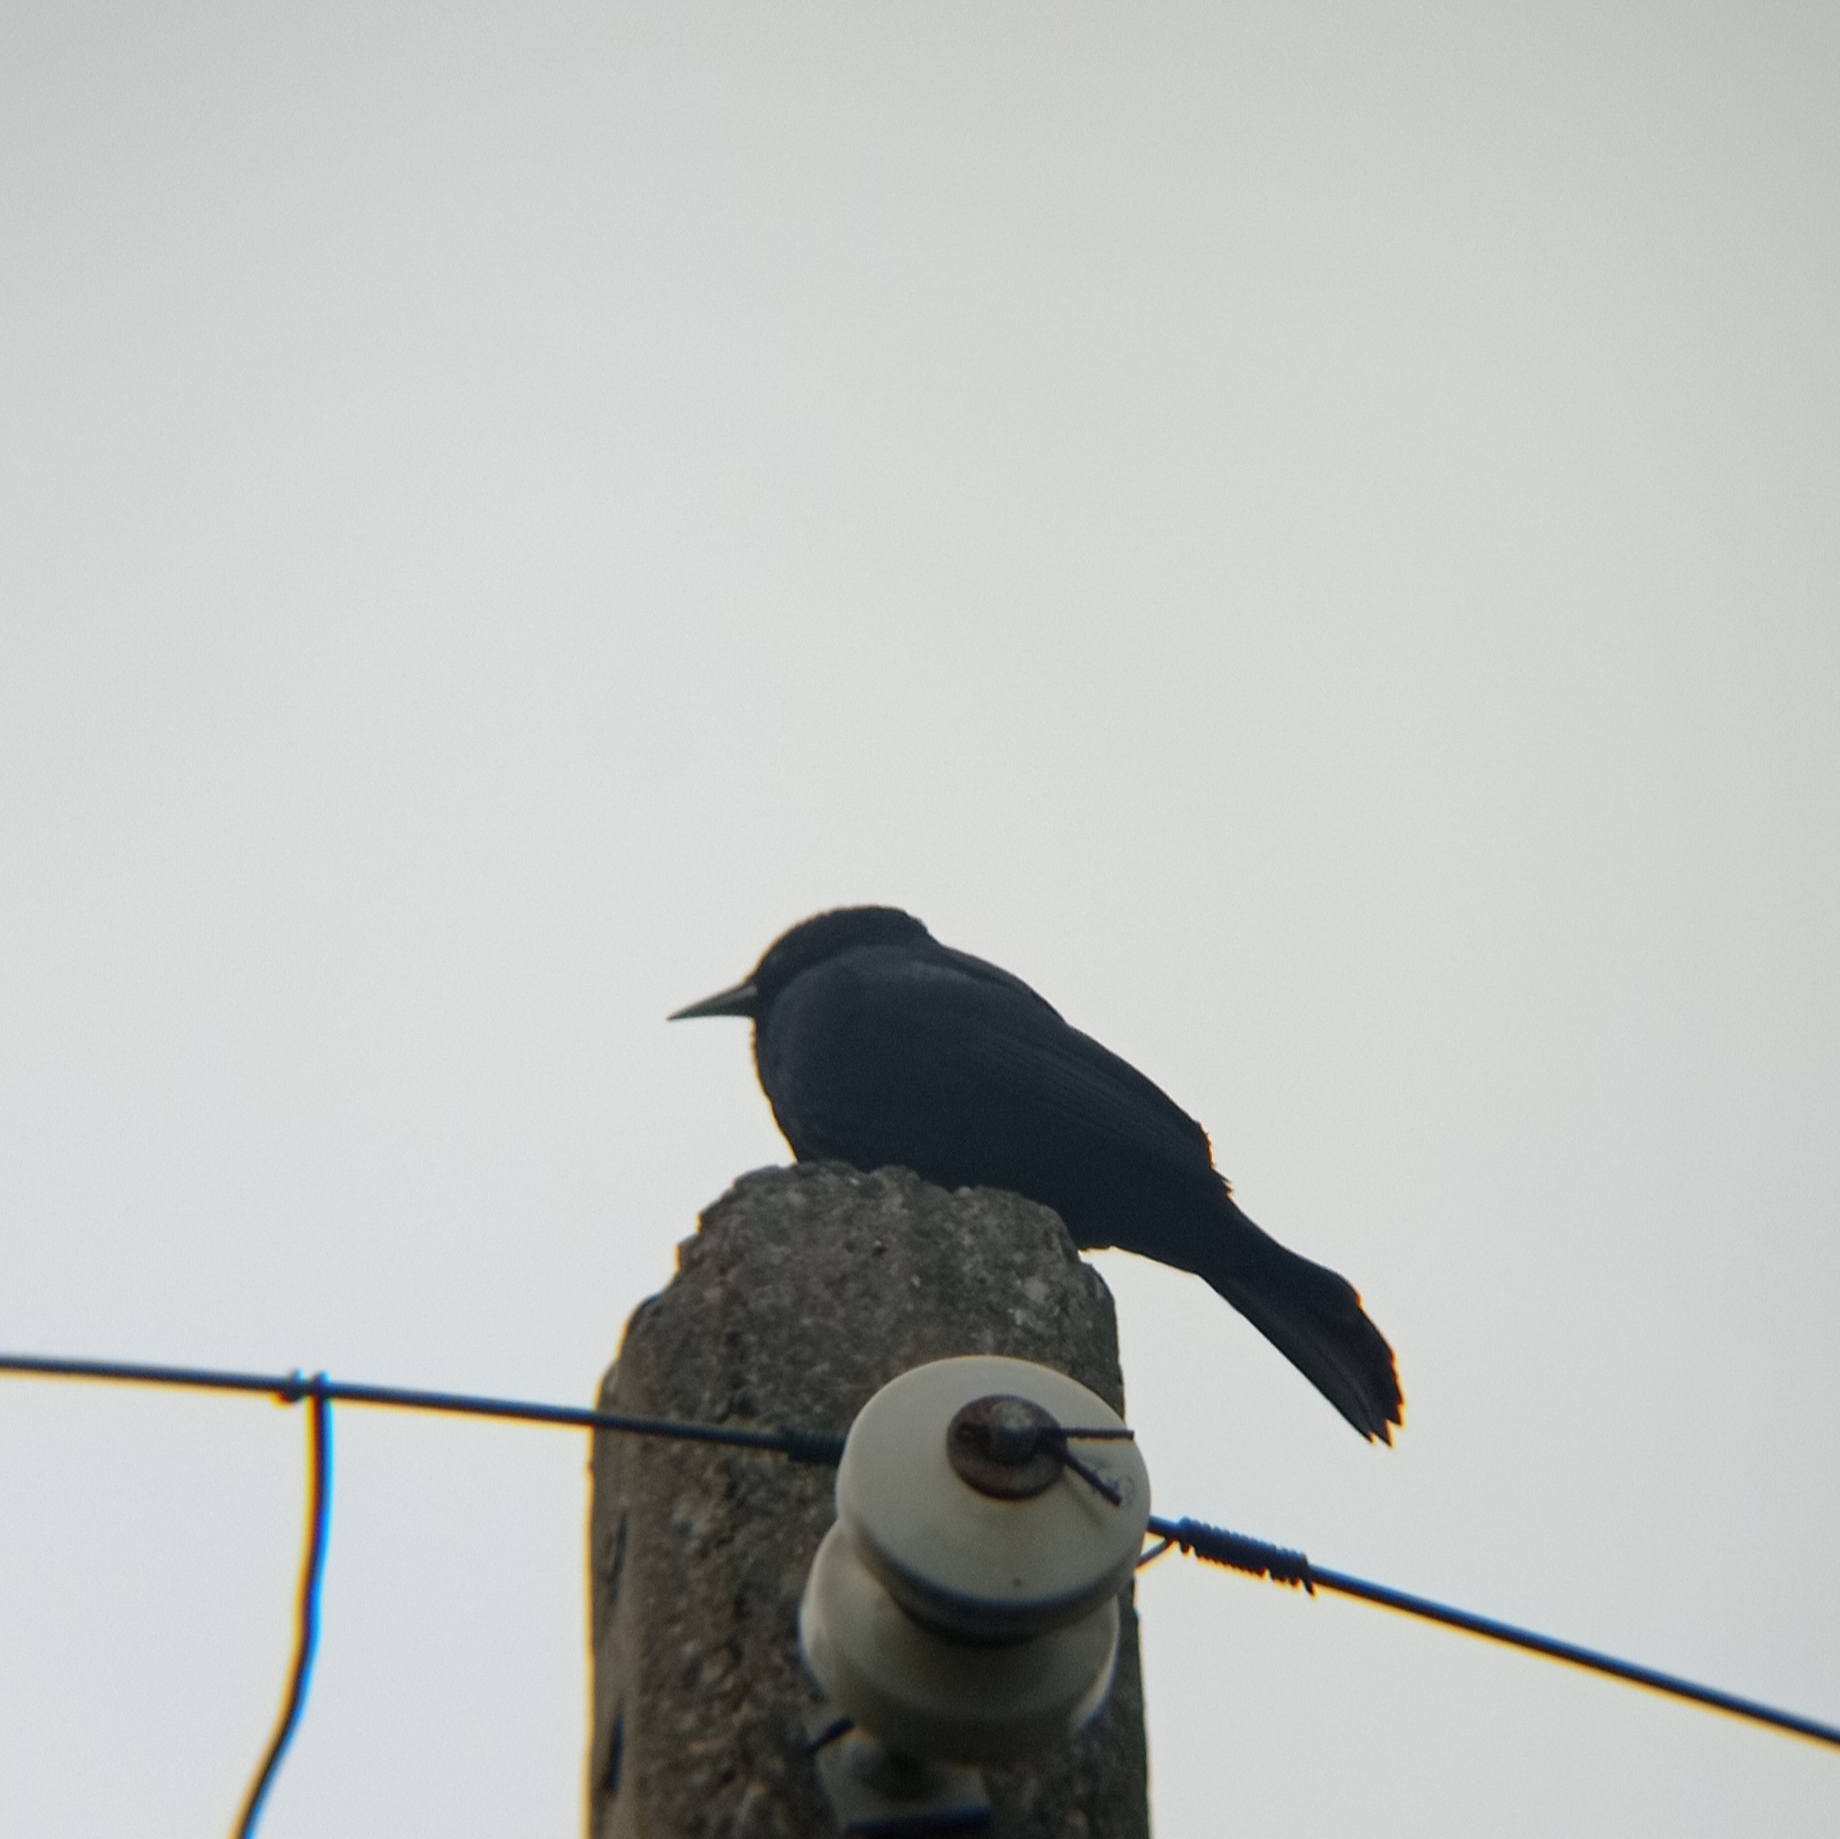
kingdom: Animalia
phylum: Chordata
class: Aves
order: Passeriformes
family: Icteridae
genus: Curaeus
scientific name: Curaeus curaeus
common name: Austral blackbird
